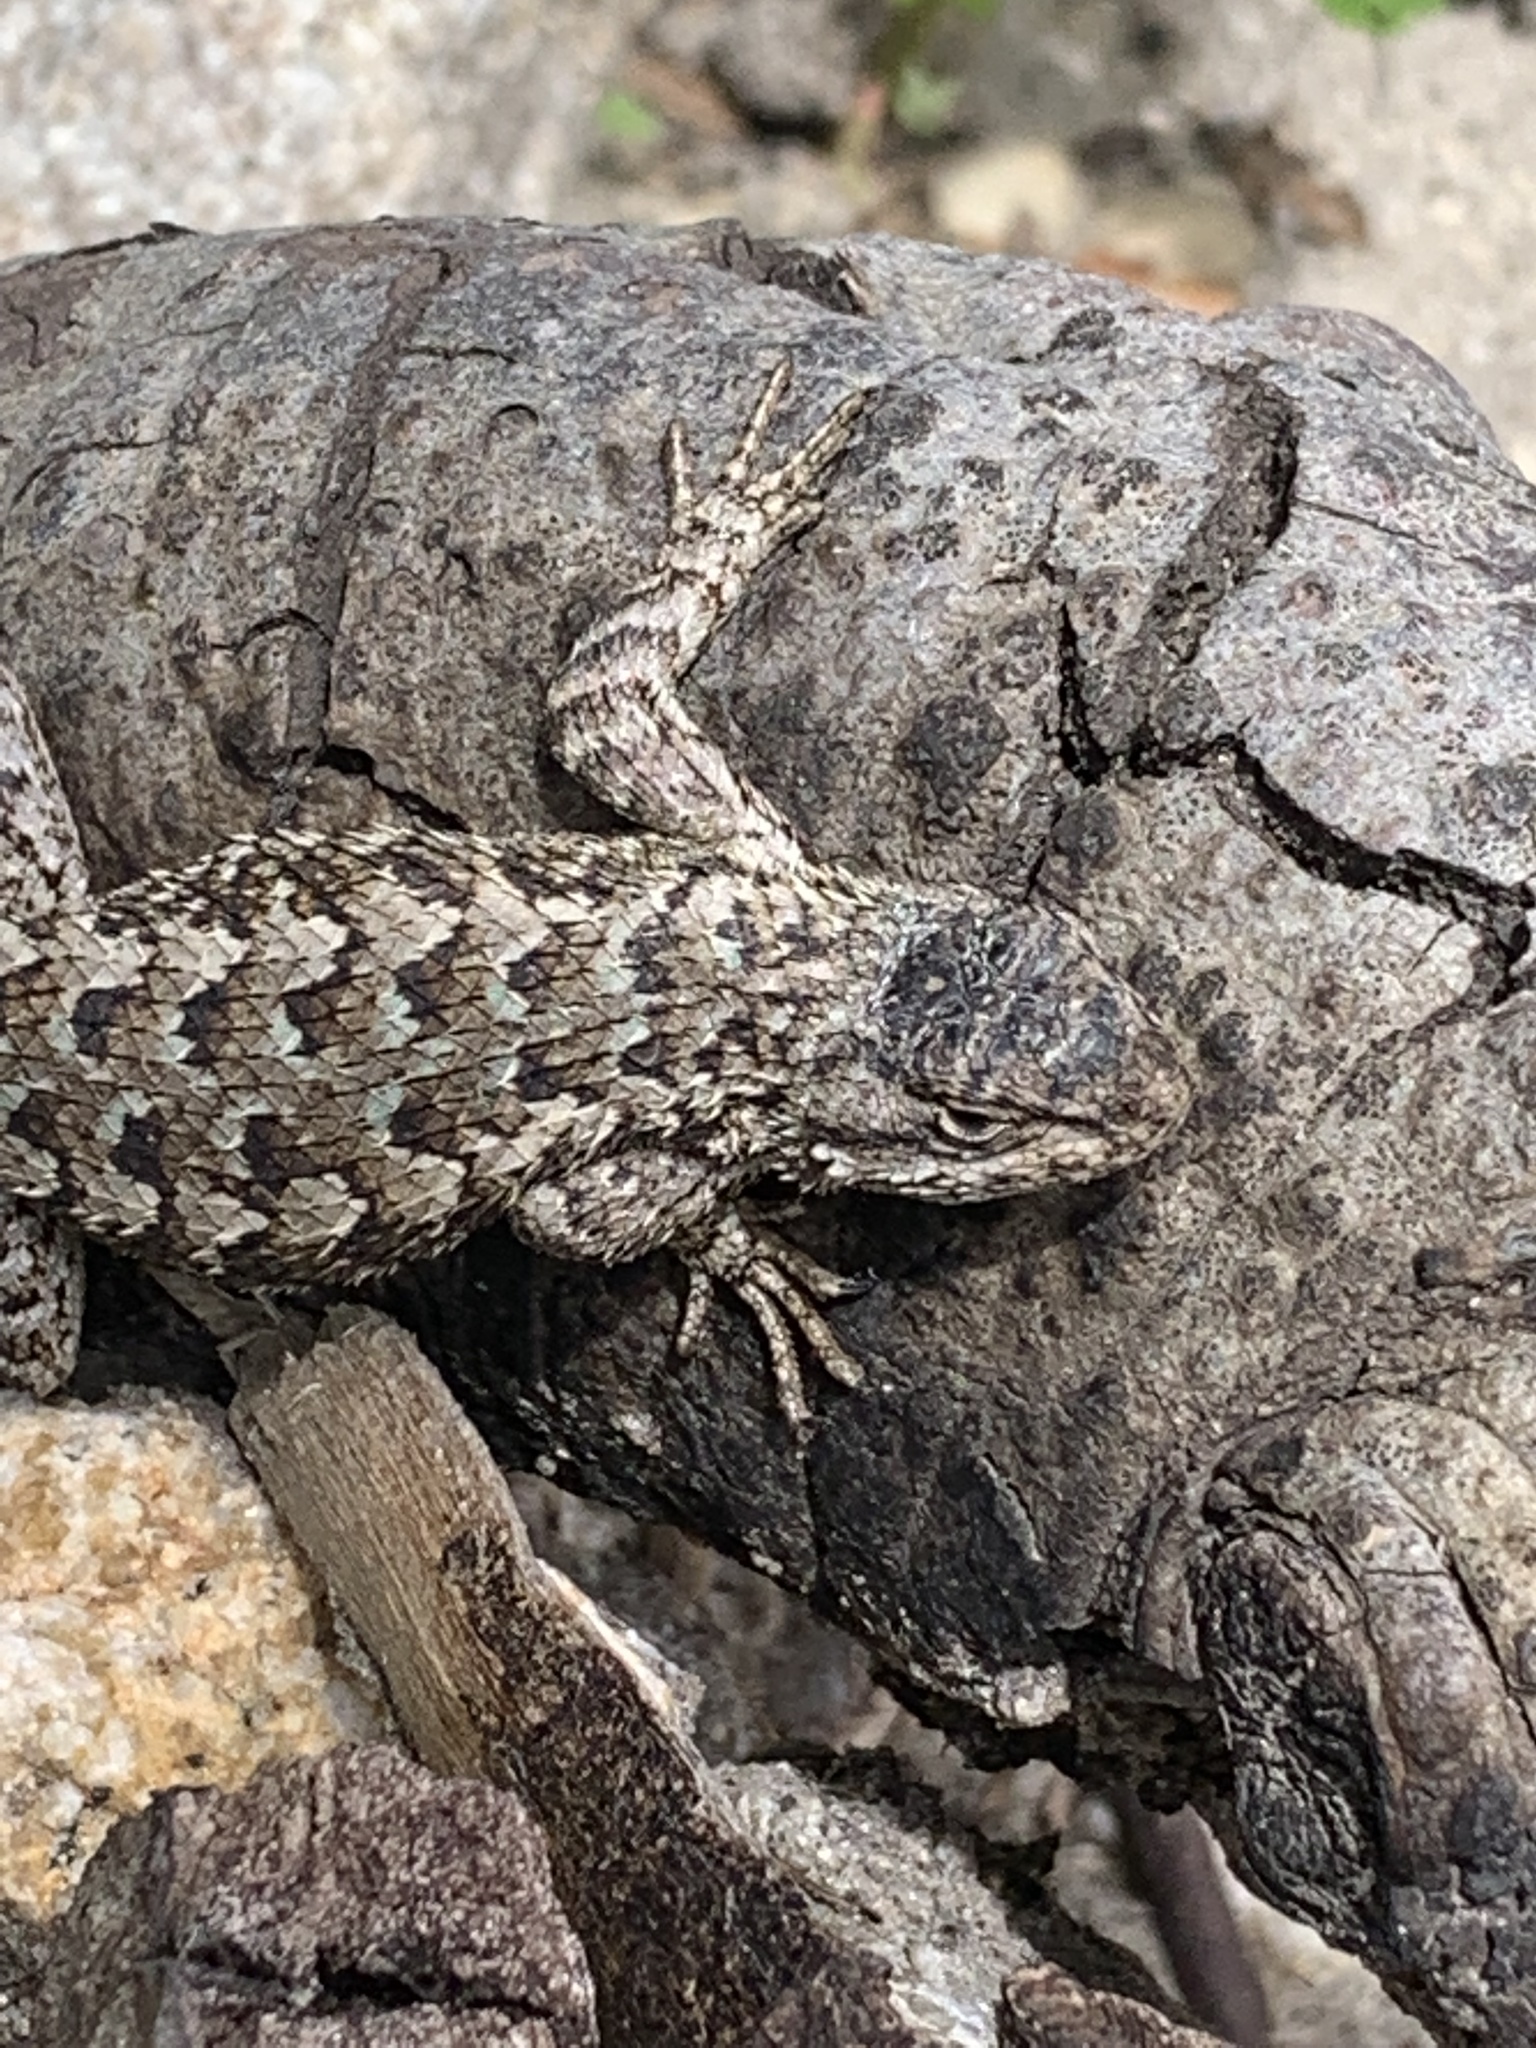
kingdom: Animalia
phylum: Chordata
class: Squamata
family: Phrynosomatidae
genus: Sceloporus
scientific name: Sceloporus occidentalis
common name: Western fence lizard
